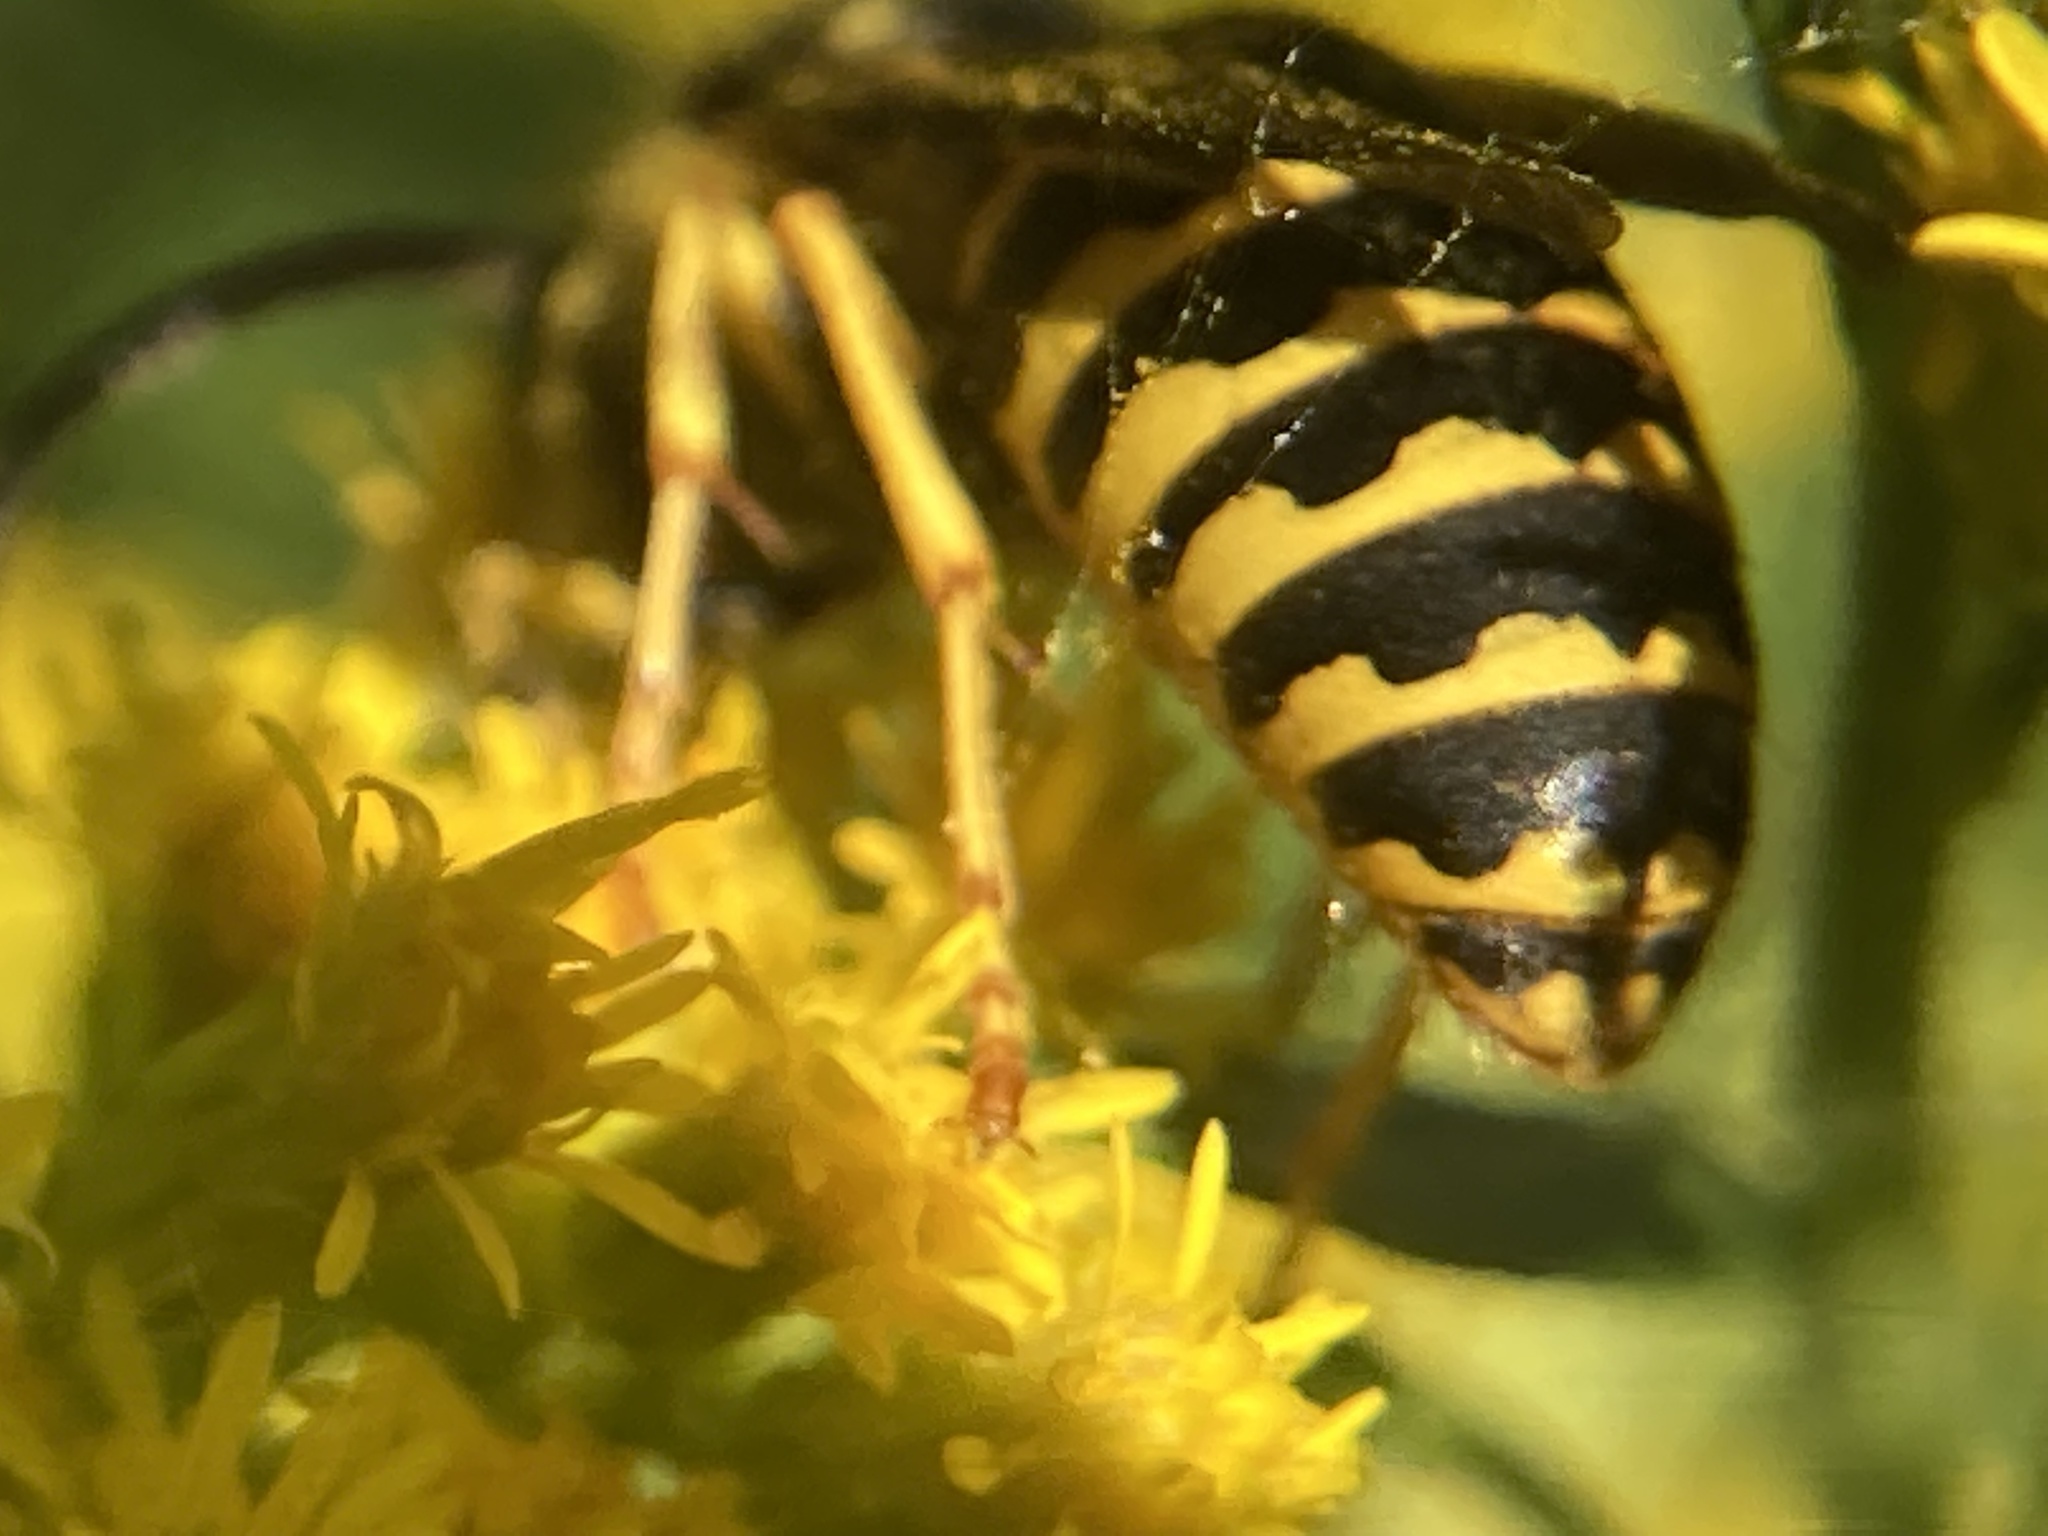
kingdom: Animalia
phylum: Arthropoda
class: Insecta
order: Hymenoptera
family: Vespidae
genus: Dolichovespula
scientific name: Dolichovespula arenaria
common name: Aerial yellowjacket
